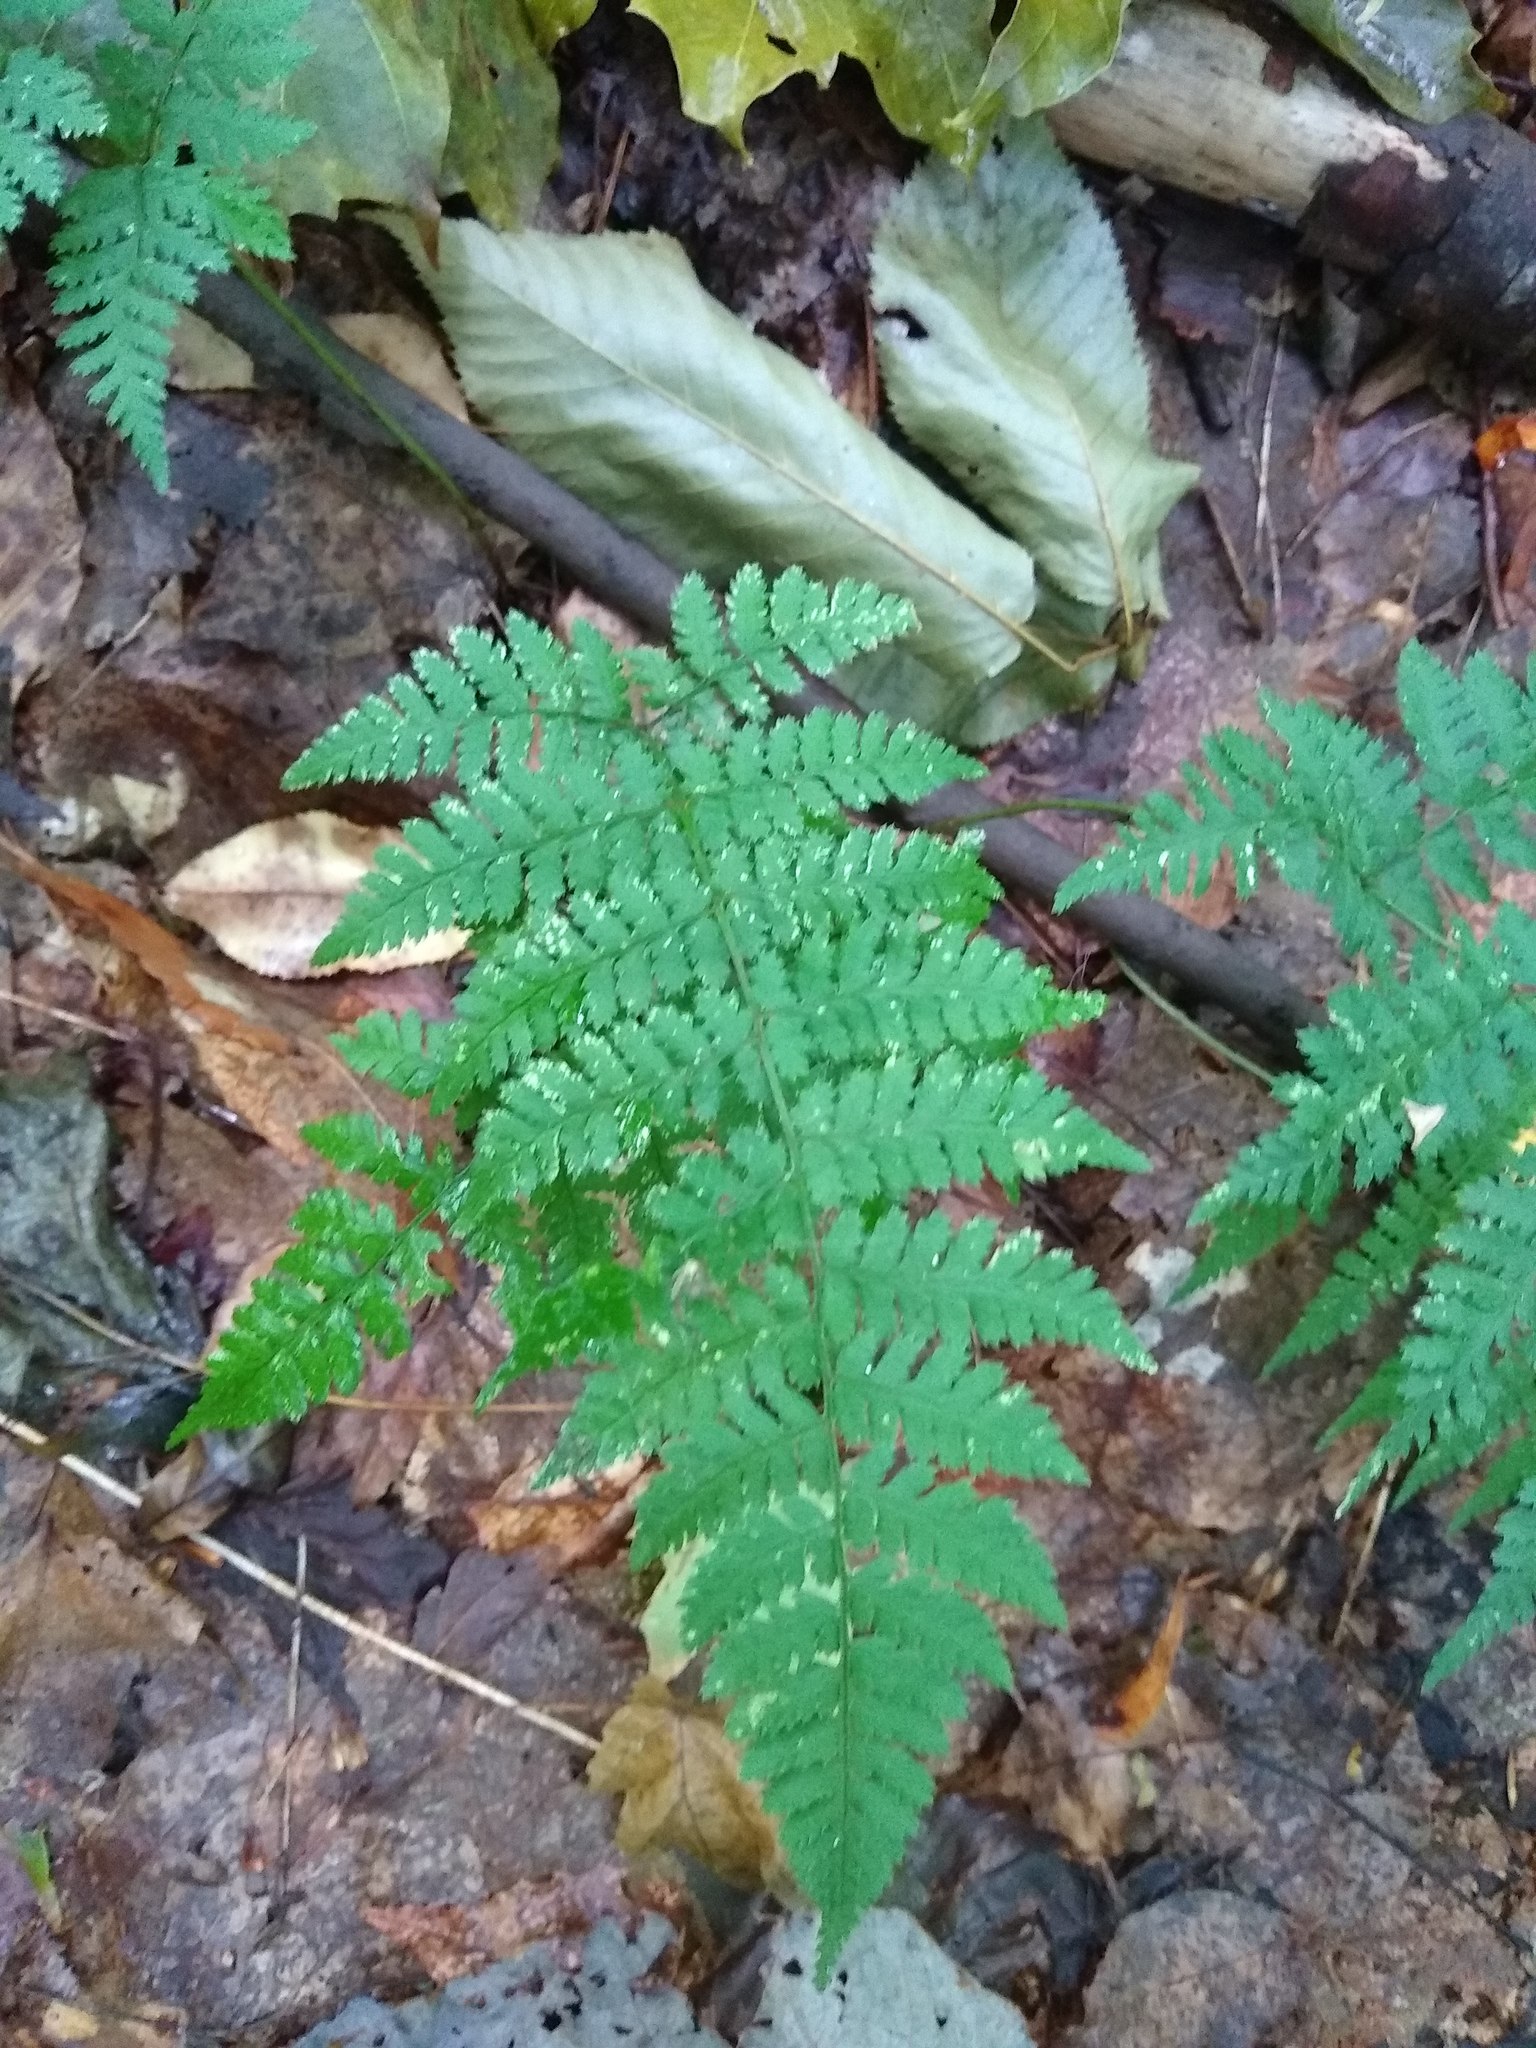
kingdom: Plantae
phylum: Tracheophyta
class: Polypodiopsida
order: Polypodiales
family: Dryopteridaceae
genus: Dryopteris
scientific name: Dryopteris intermedia
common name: Evergreen wood fern
